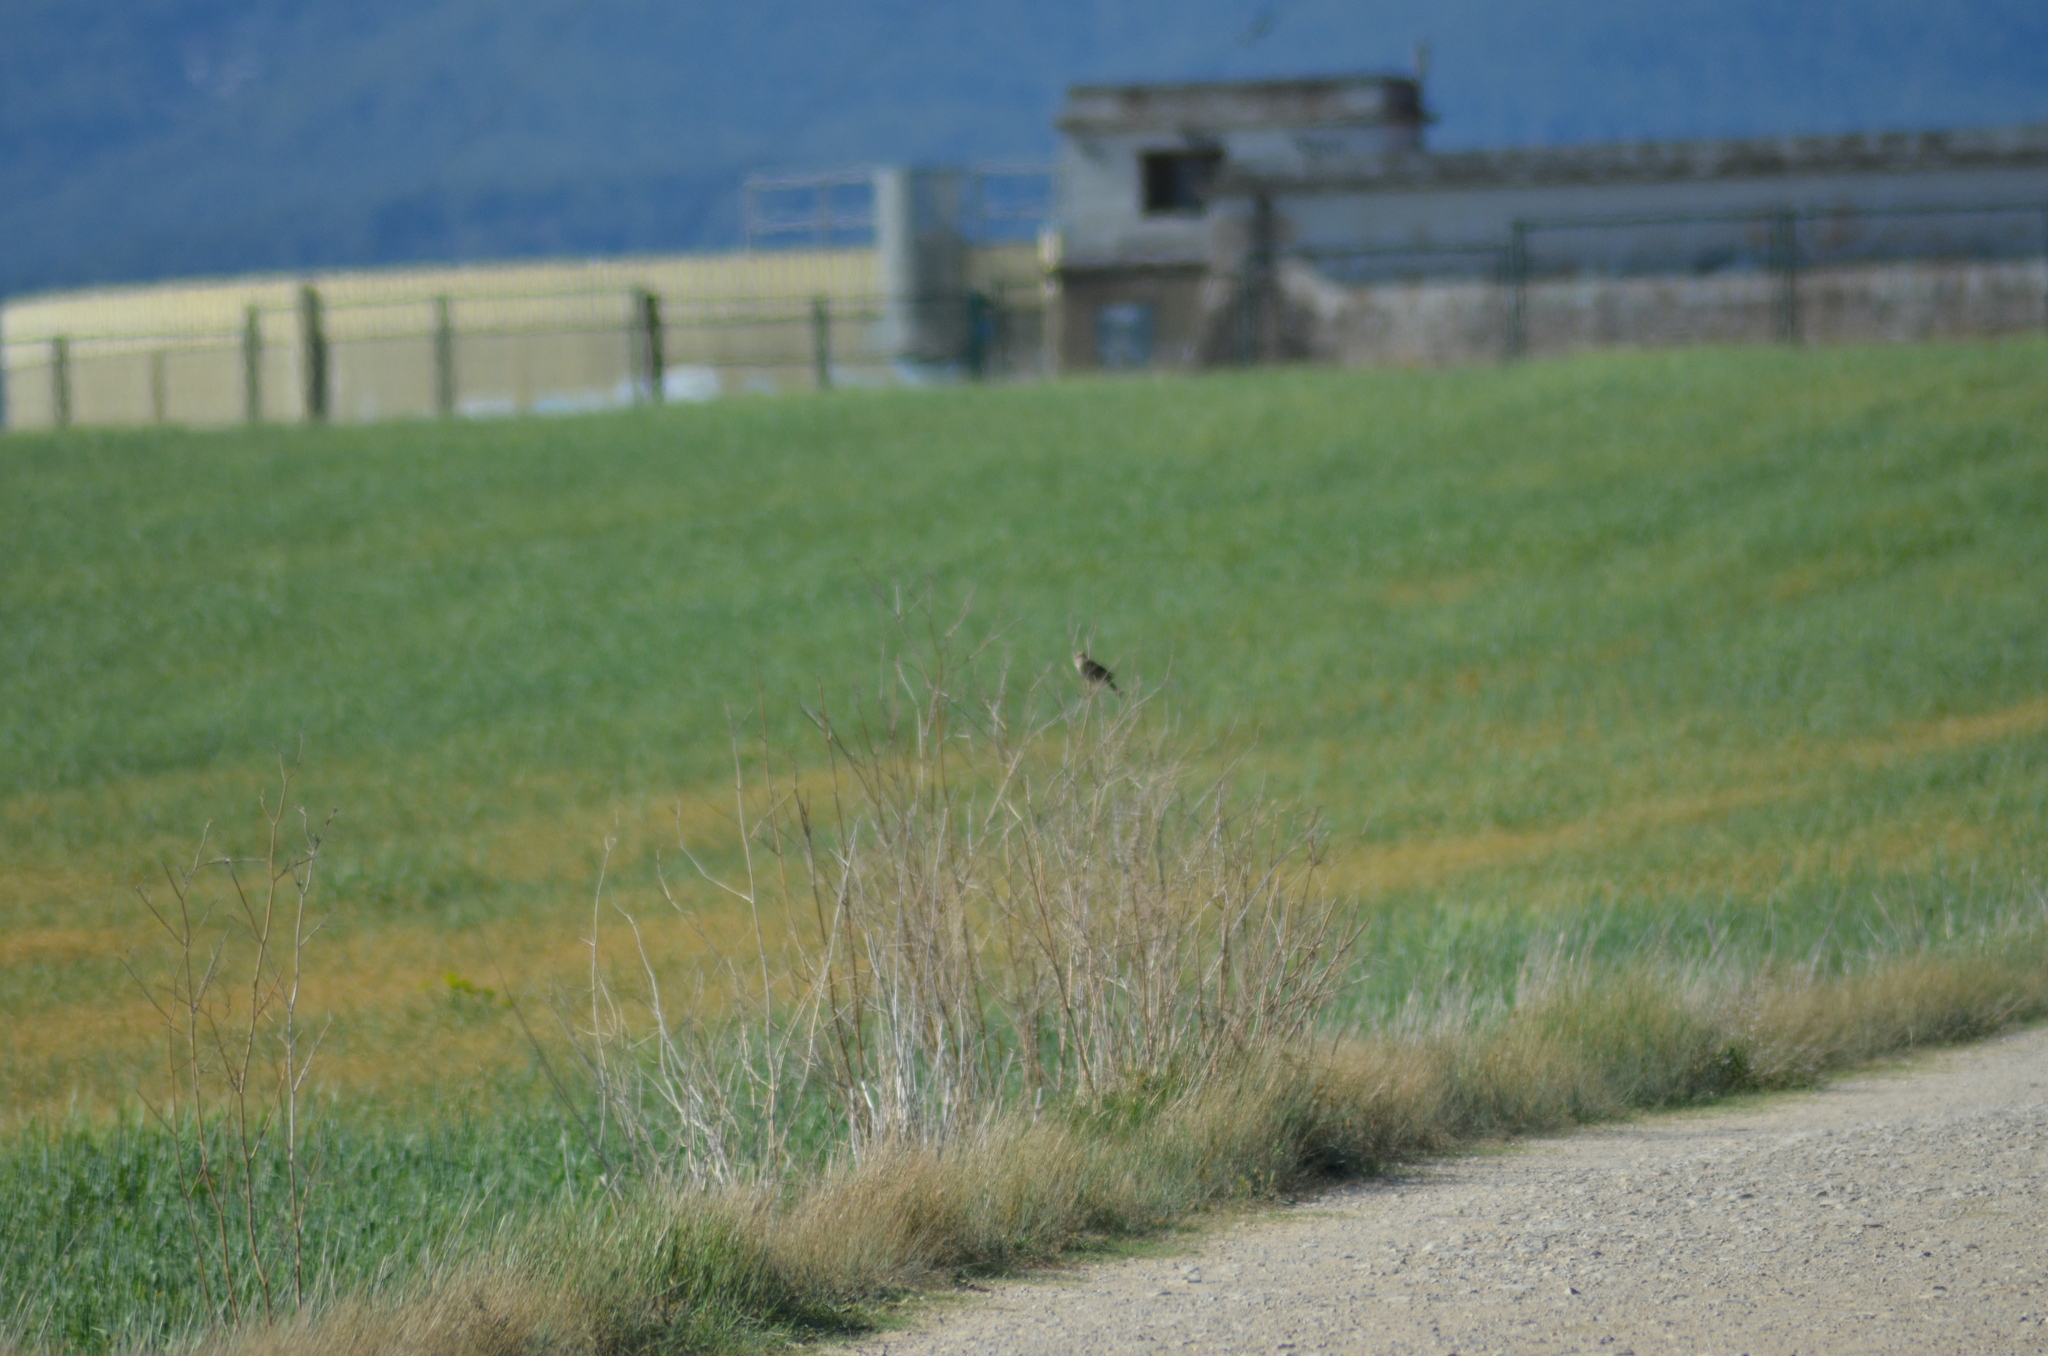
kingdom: Animalia
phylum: Chordata
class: Aves
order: Passeriformes
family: Emberizidae
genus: Emberiza
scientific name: Emberiza calandra
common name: Corn bunting
